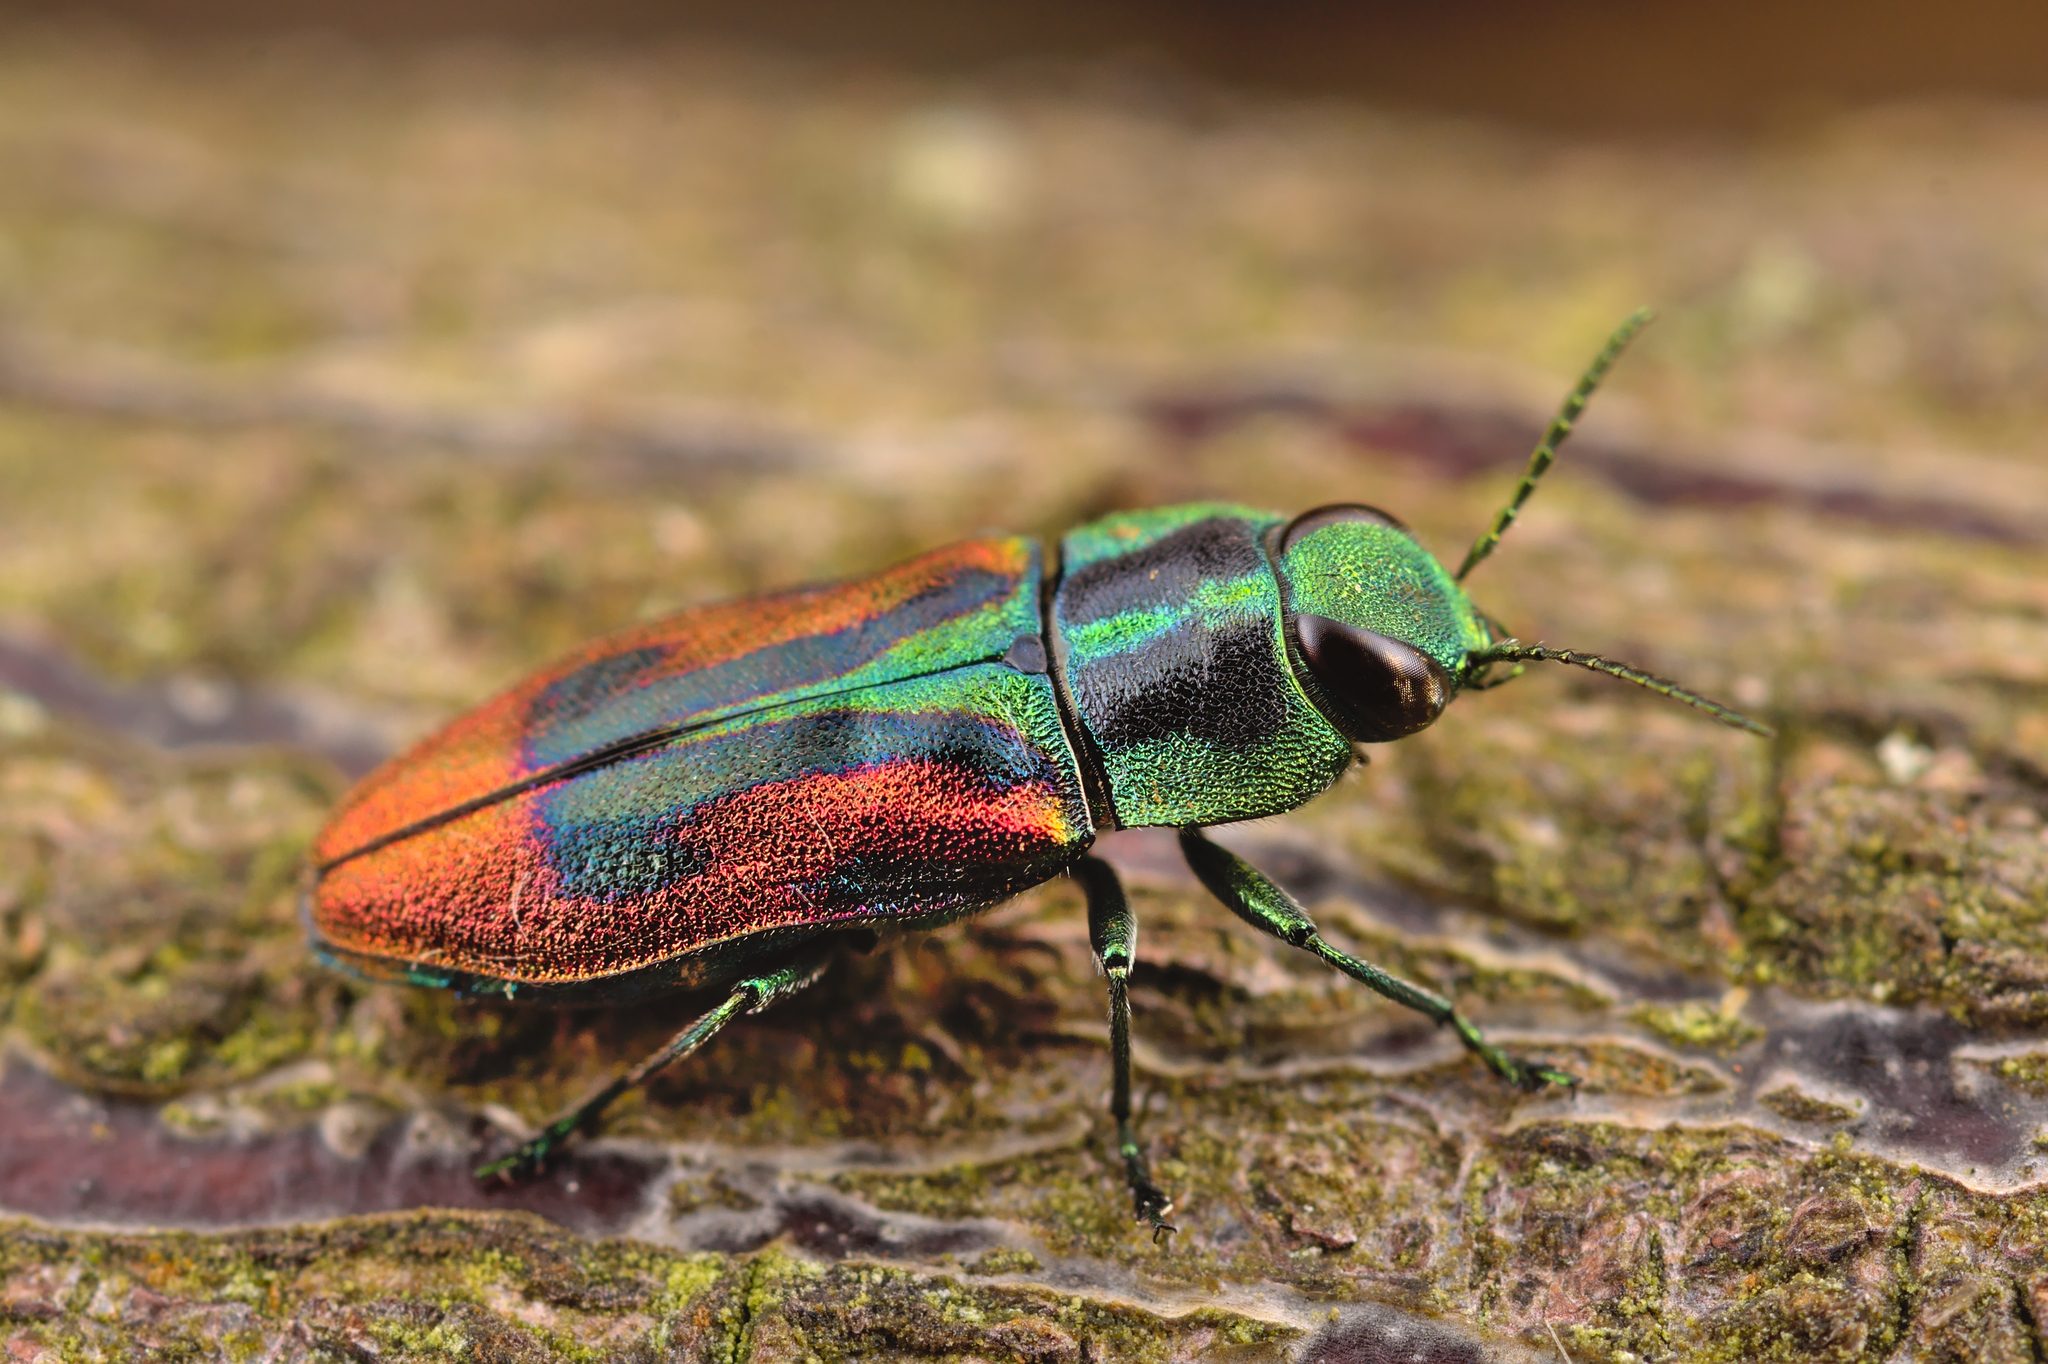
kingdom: Animalia
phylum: Arthropoda
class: Insecta
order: Coleoptera
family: Buprestidae
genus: Anthaxia
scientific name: Anthaxia candens
